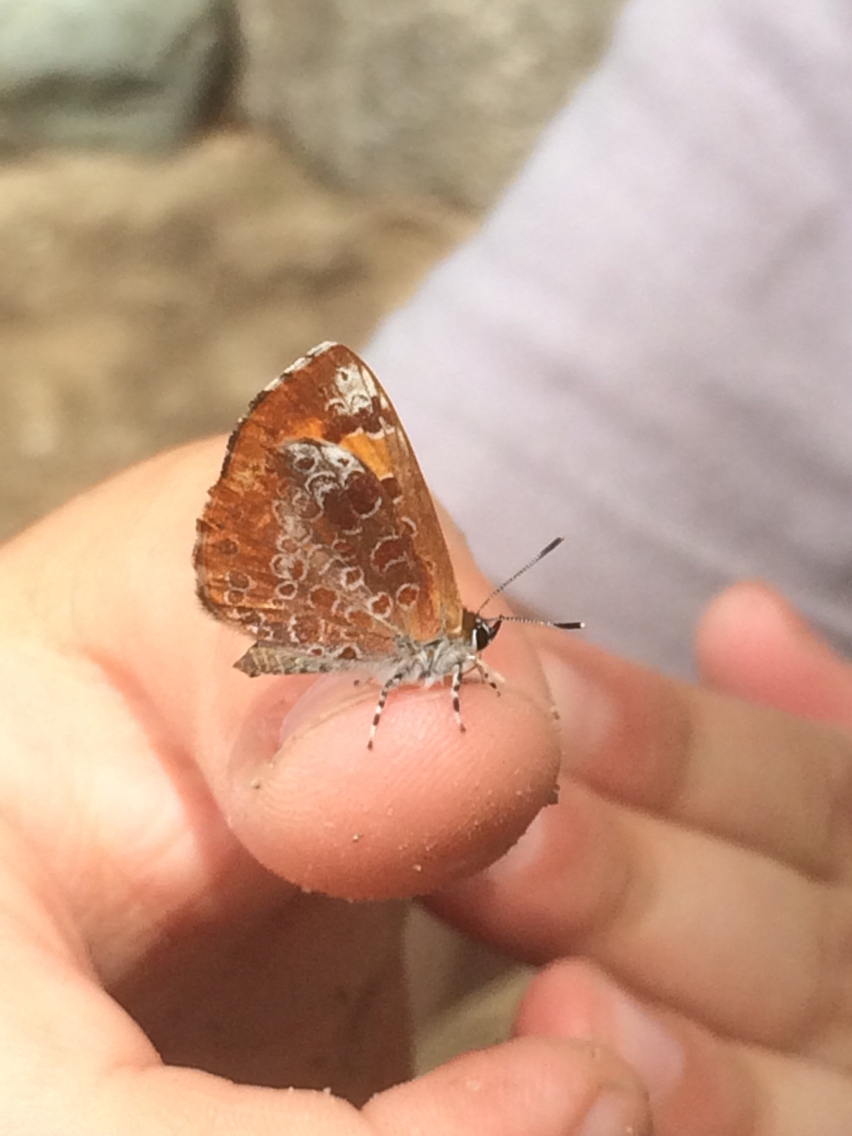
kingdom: Animalia
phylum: Arthropoda
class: Insecta
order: Lepidoptera
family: Lycaenidae
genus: Feniseca
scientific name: Feniseca tarquinius
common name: Harvester
